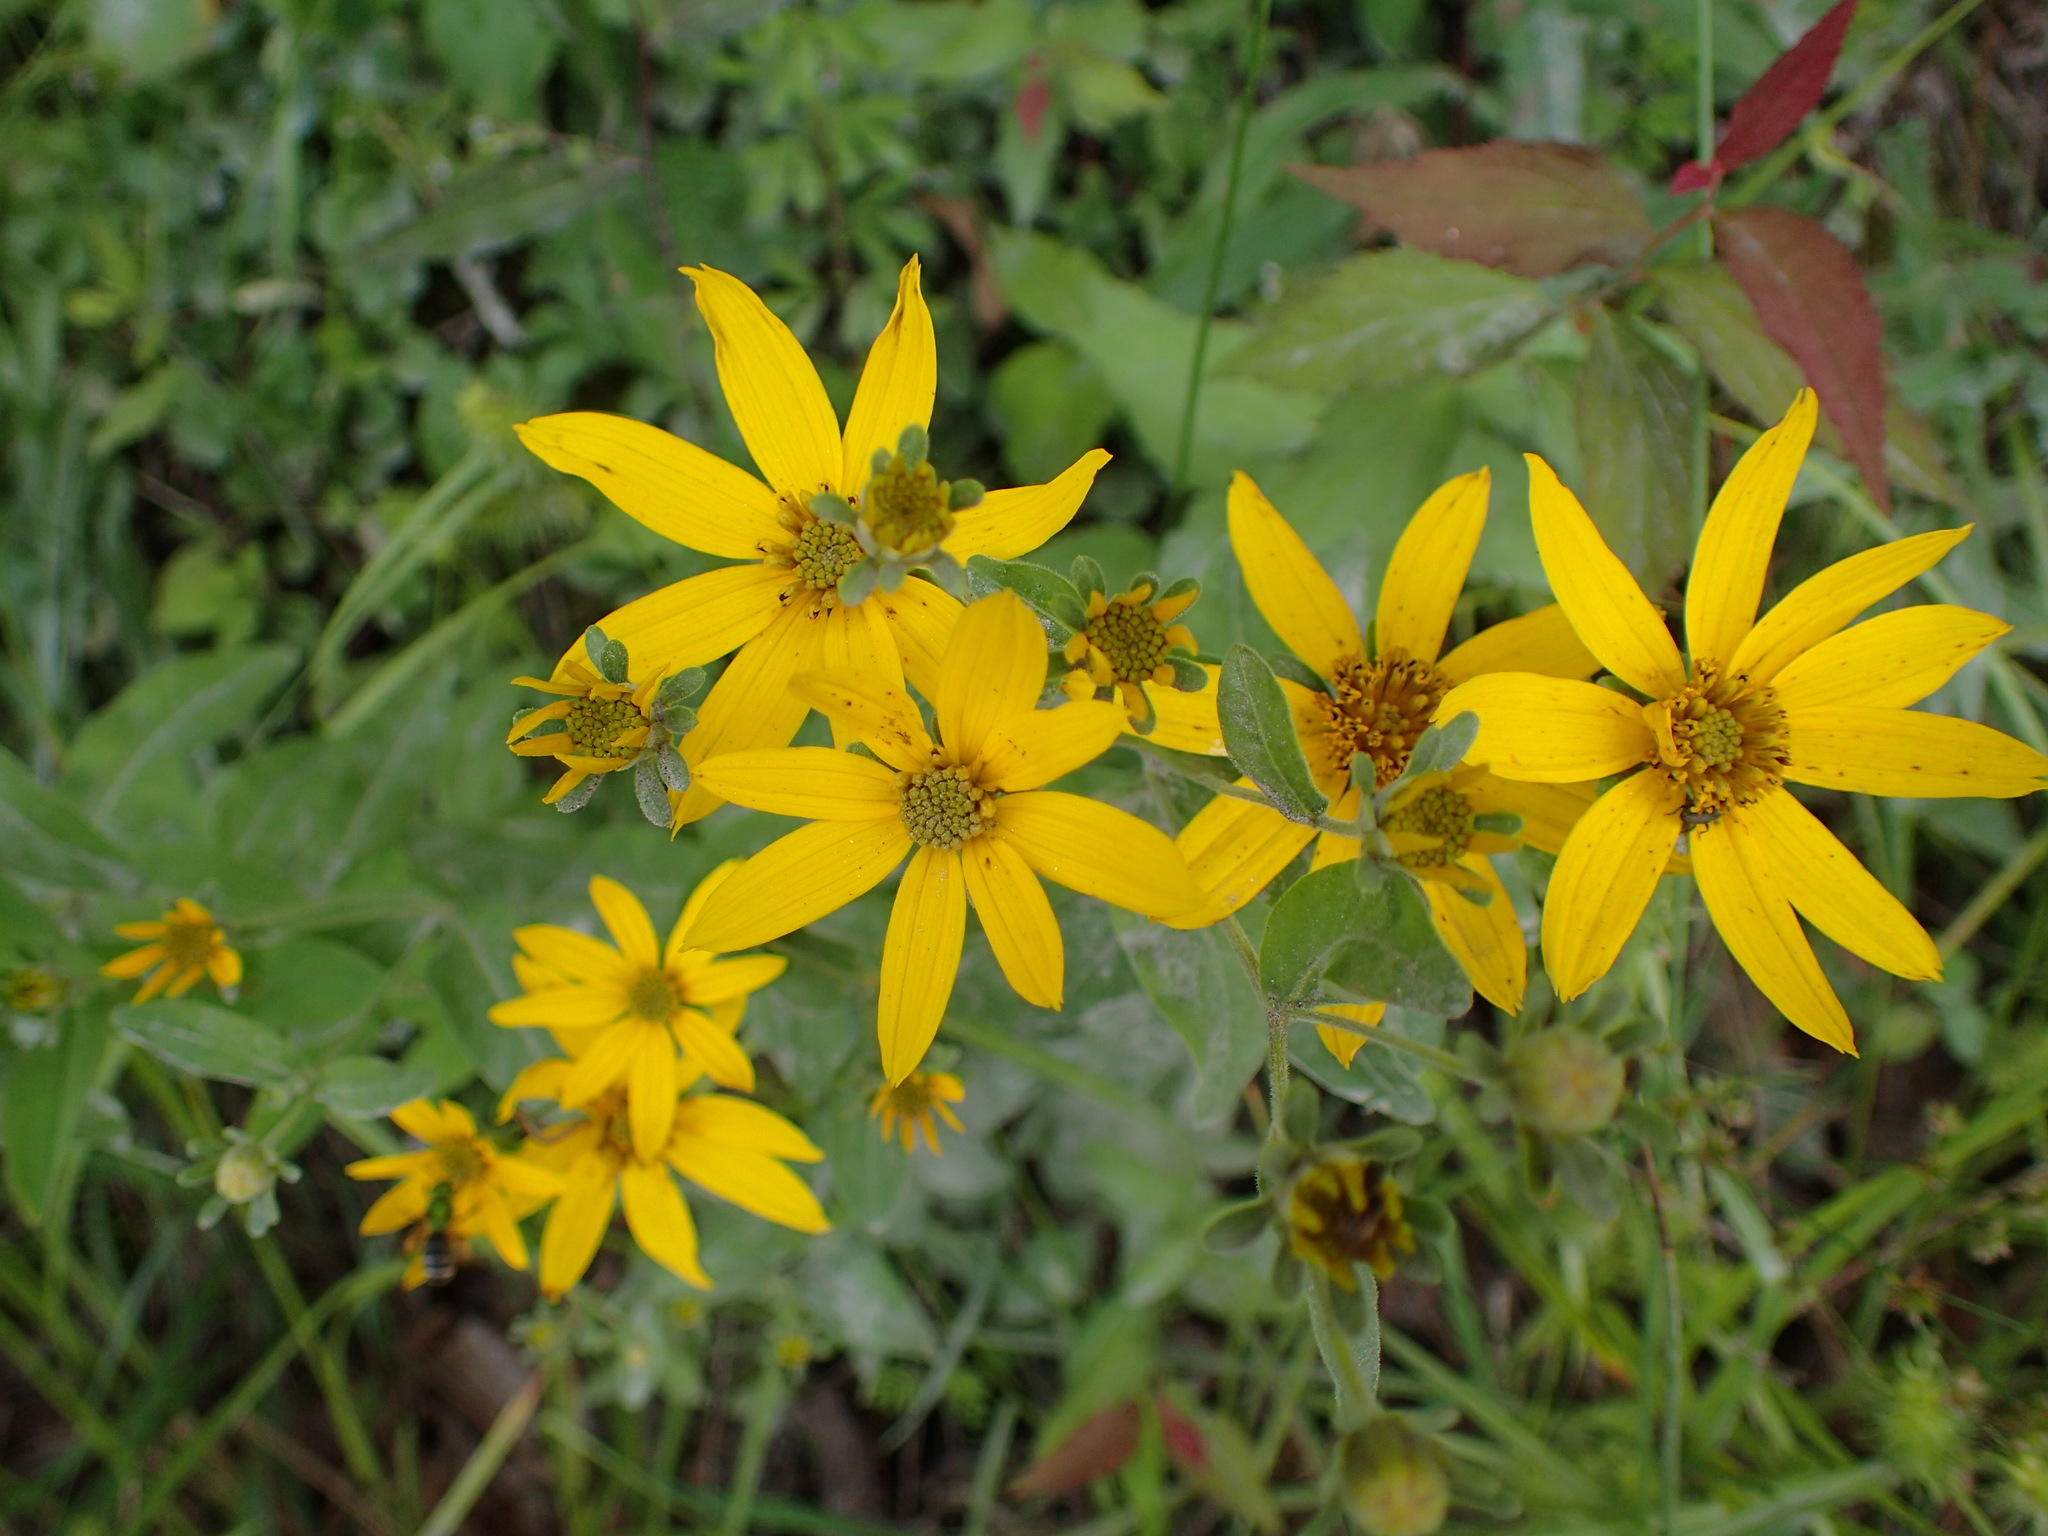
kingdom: Plantae
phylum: Tracheophyta
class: Magnoliopsida
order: Asterales
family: Asteraceae
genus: Coreopsis
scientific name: Coreopsis major
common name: Forest tickseed
